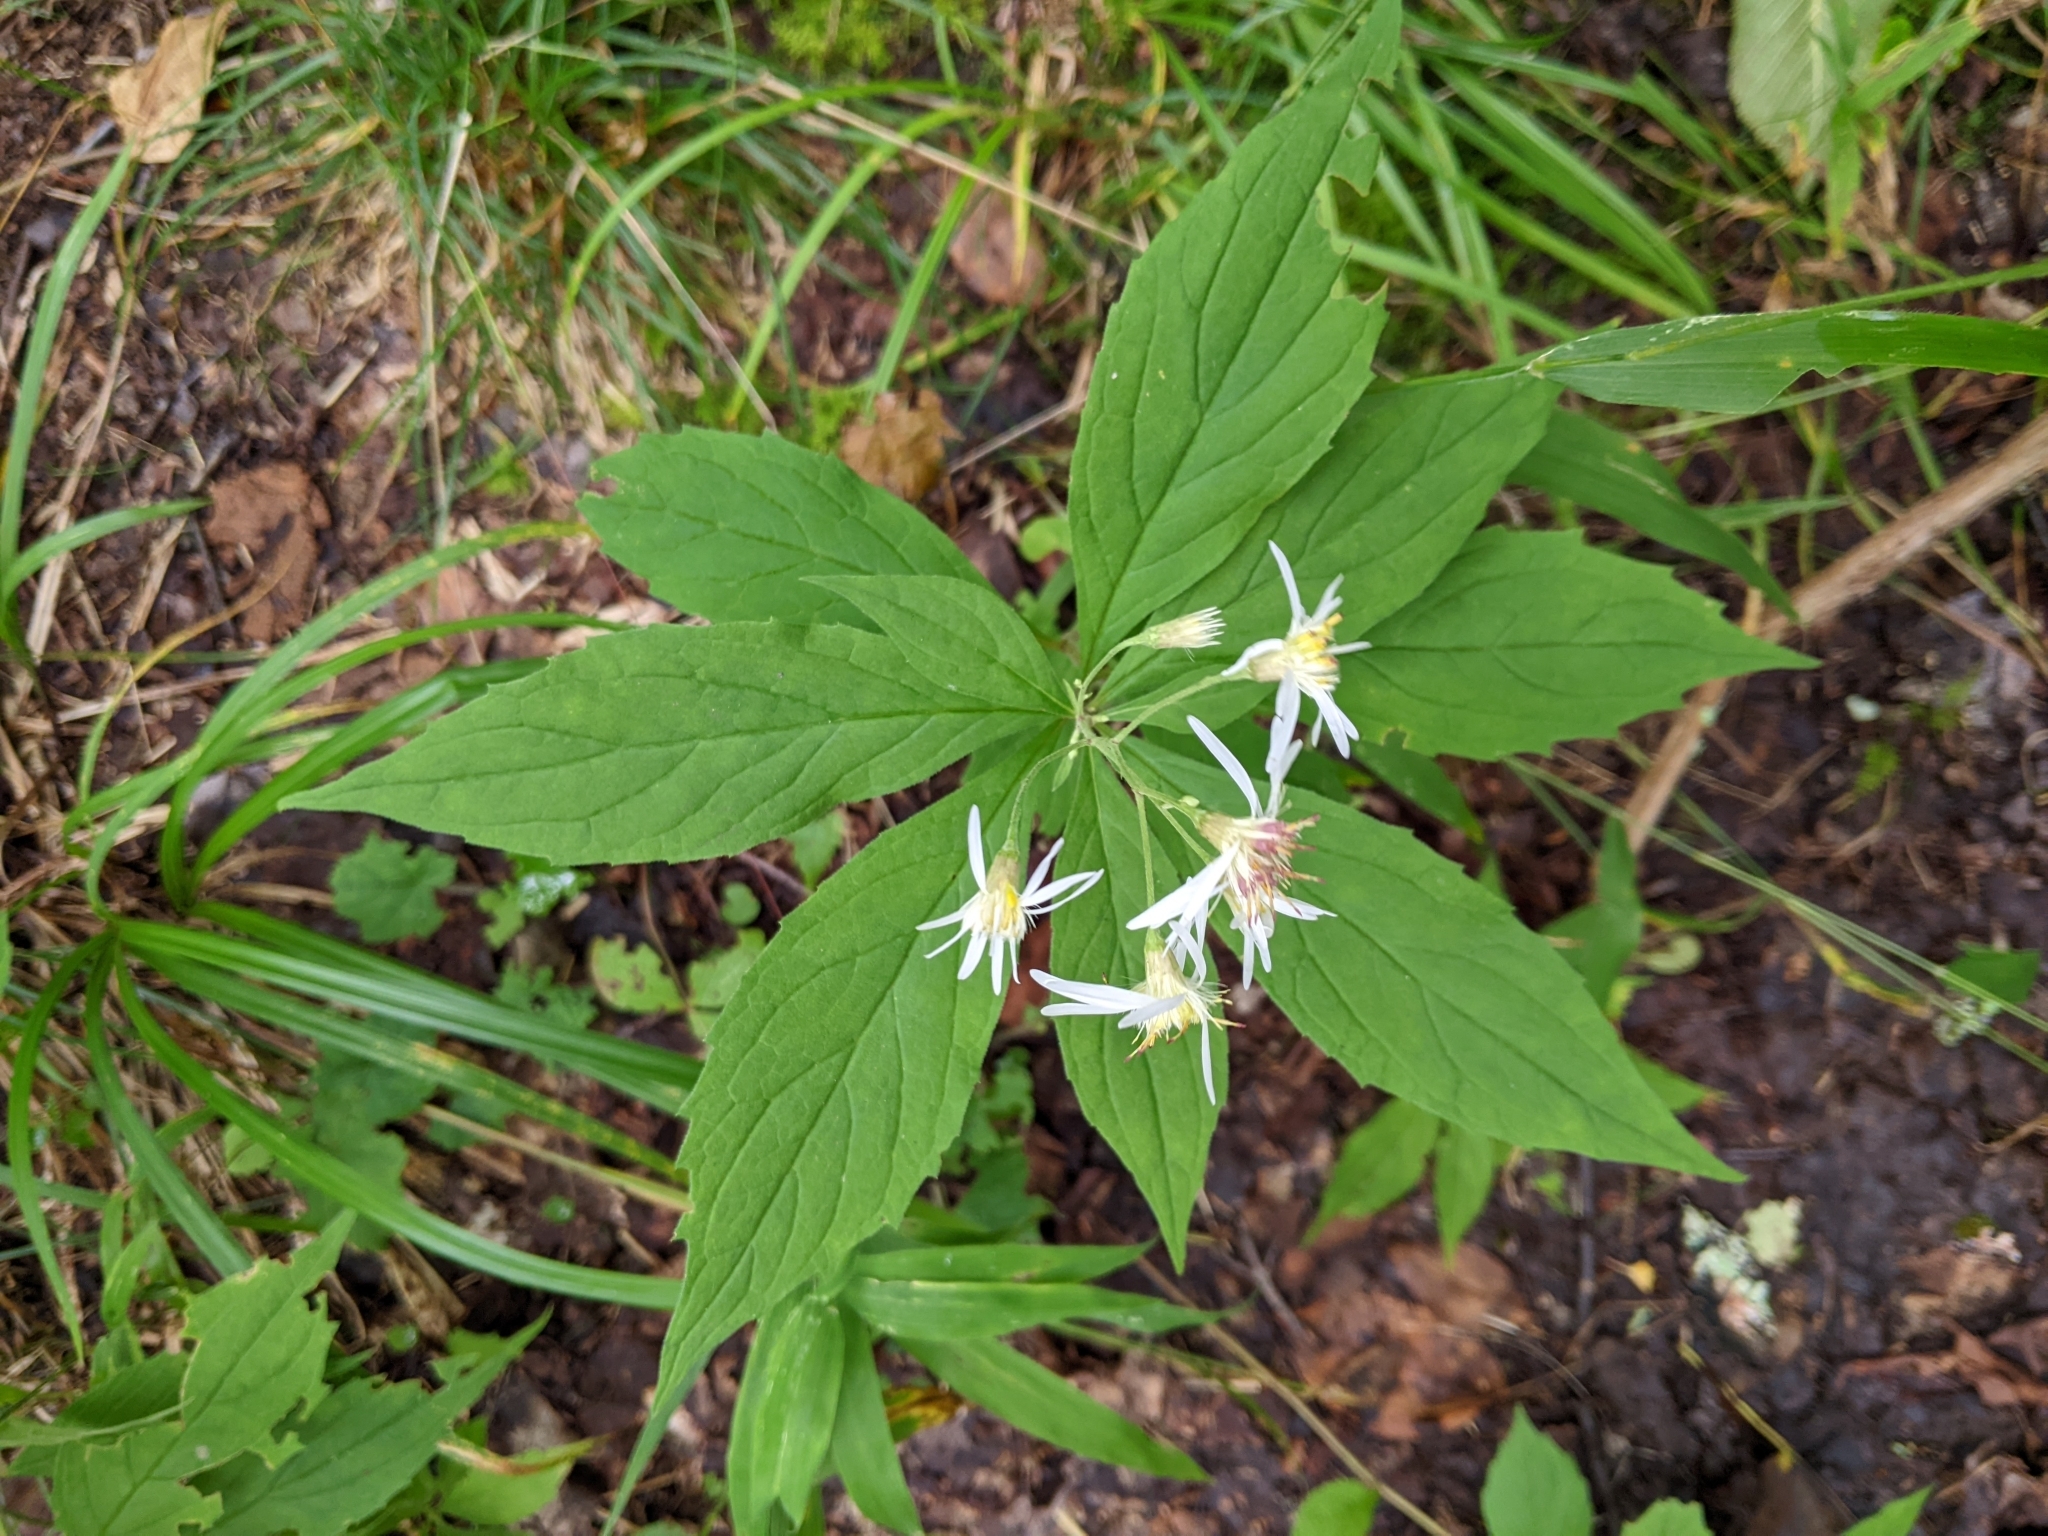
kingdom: Plantae
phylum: Tracheophyta
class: Magnoliopsida
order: Asterales
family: Asteraceae
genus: Oclemena
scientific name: Oclemena acuminata
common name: Mountain aster
